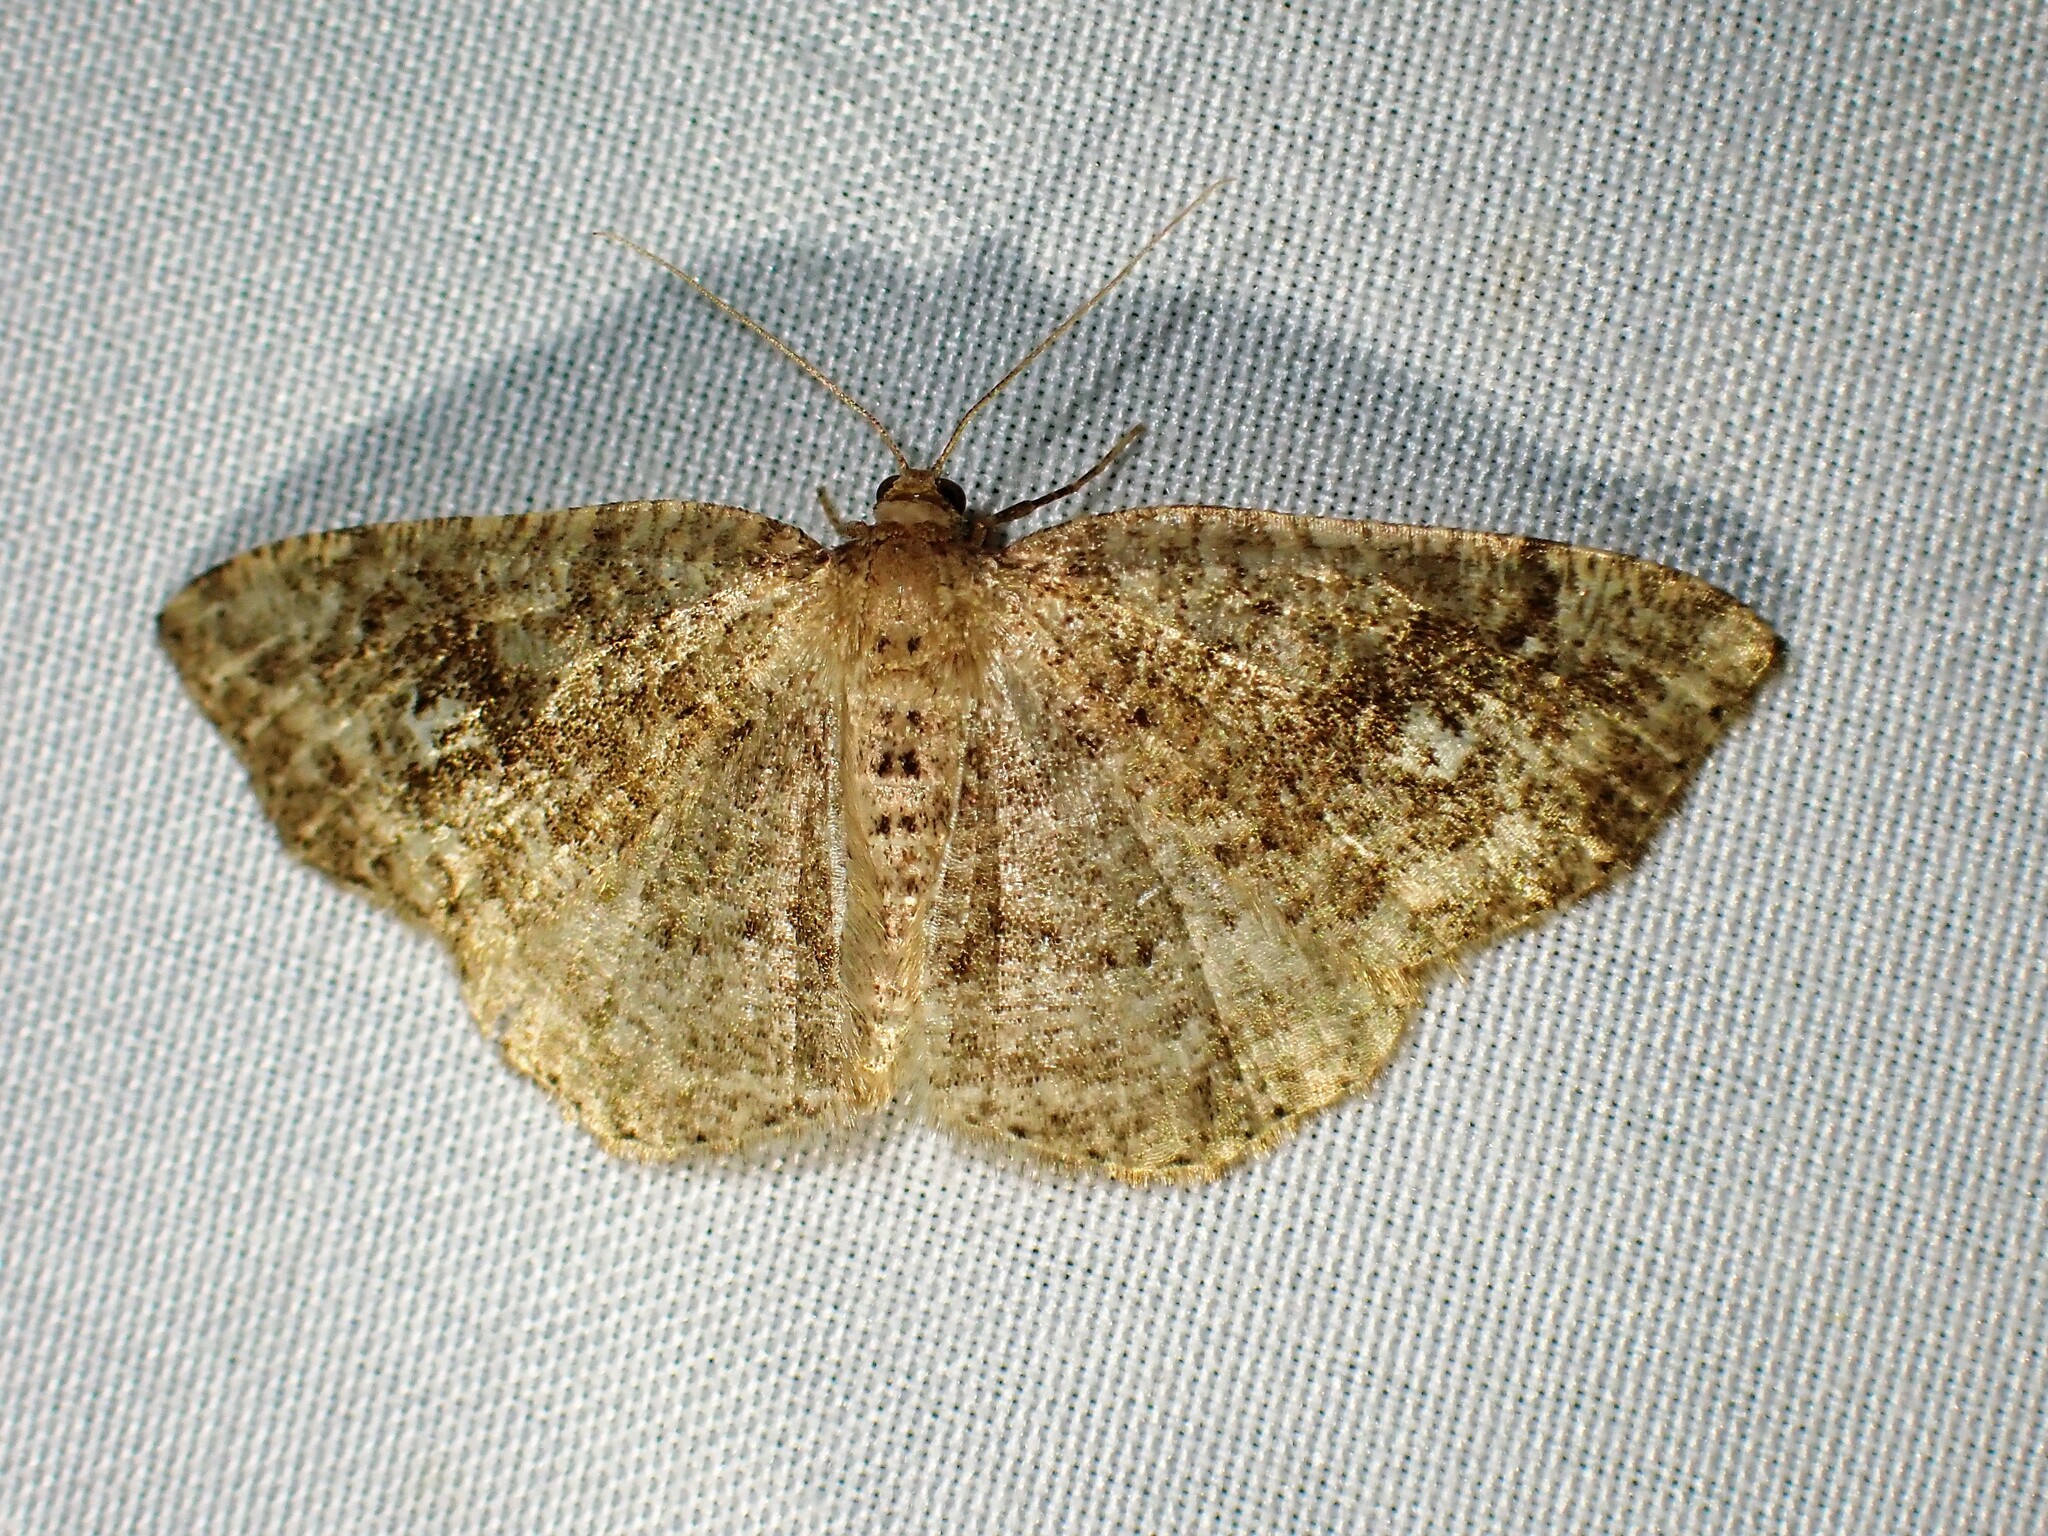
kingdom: Animalia
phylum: Arthropoda
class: Insecta
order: Lepidoptera
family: Geometridae
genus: Homochlodes
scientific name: Homochlodes fritillaria
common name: Pale homochlodes
